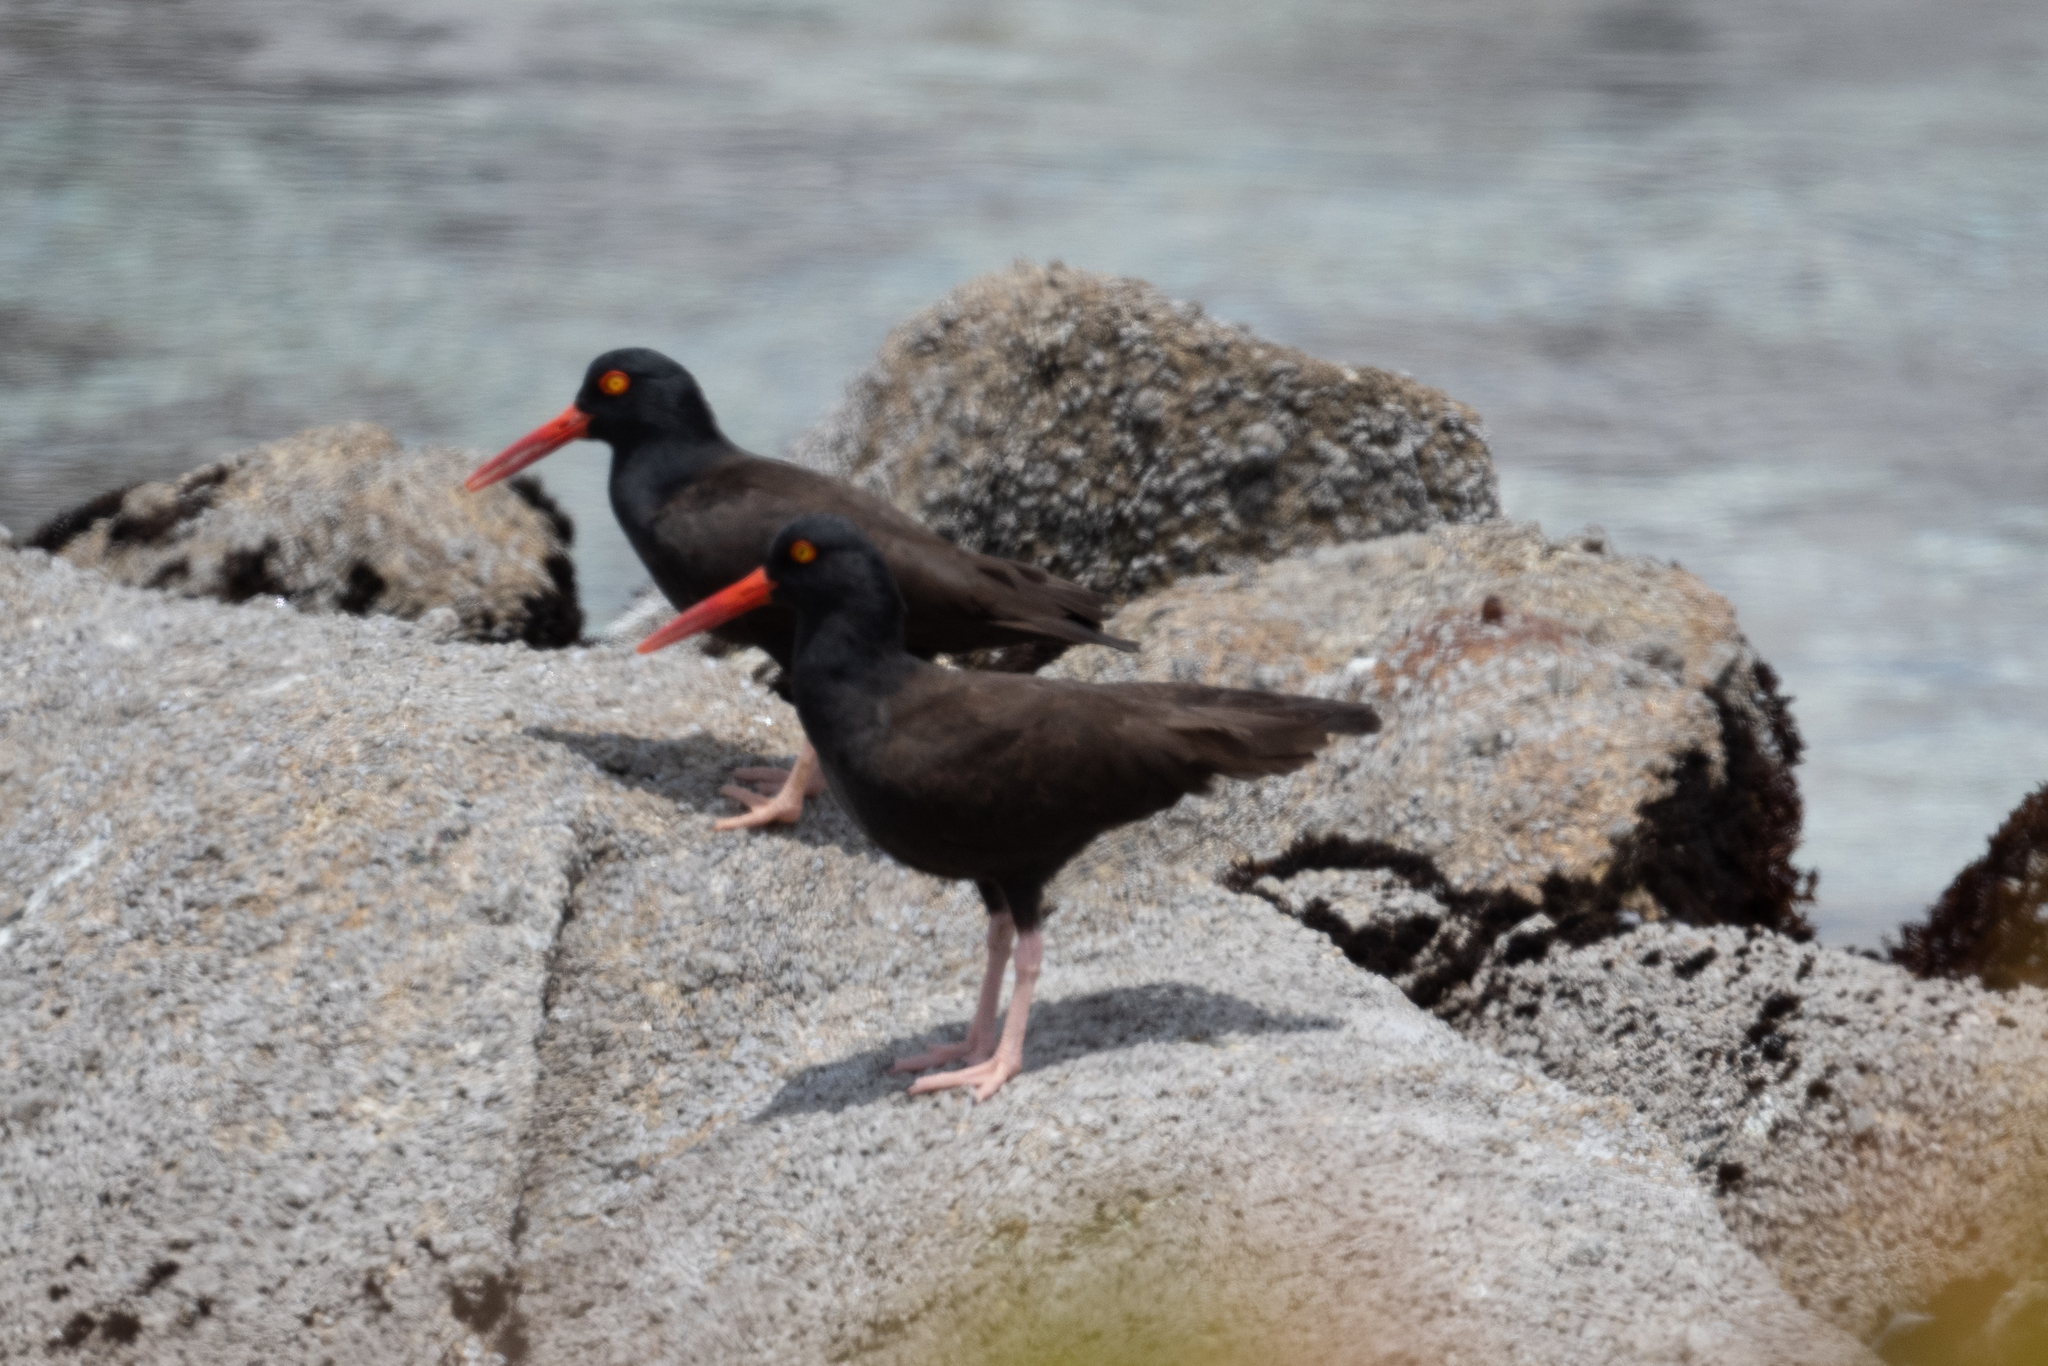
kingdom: Animalia
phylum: Chordata
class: Aves
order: Charadriiformes
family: Haematopodidae
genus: Haematopus
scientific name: Haematopus bachmani
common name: Black oystercatcher
